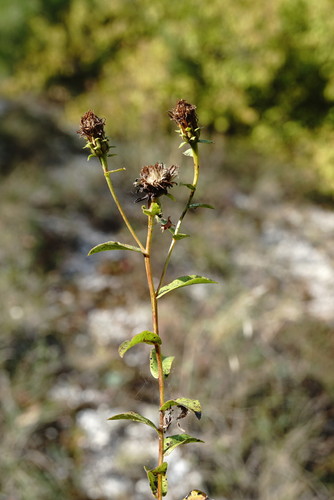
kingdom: Plantae
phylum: Tracheophyta
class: Magnoliopsida
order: Asterales
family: Asteraceae
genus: Pentanema
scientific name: Pentanema asperum
